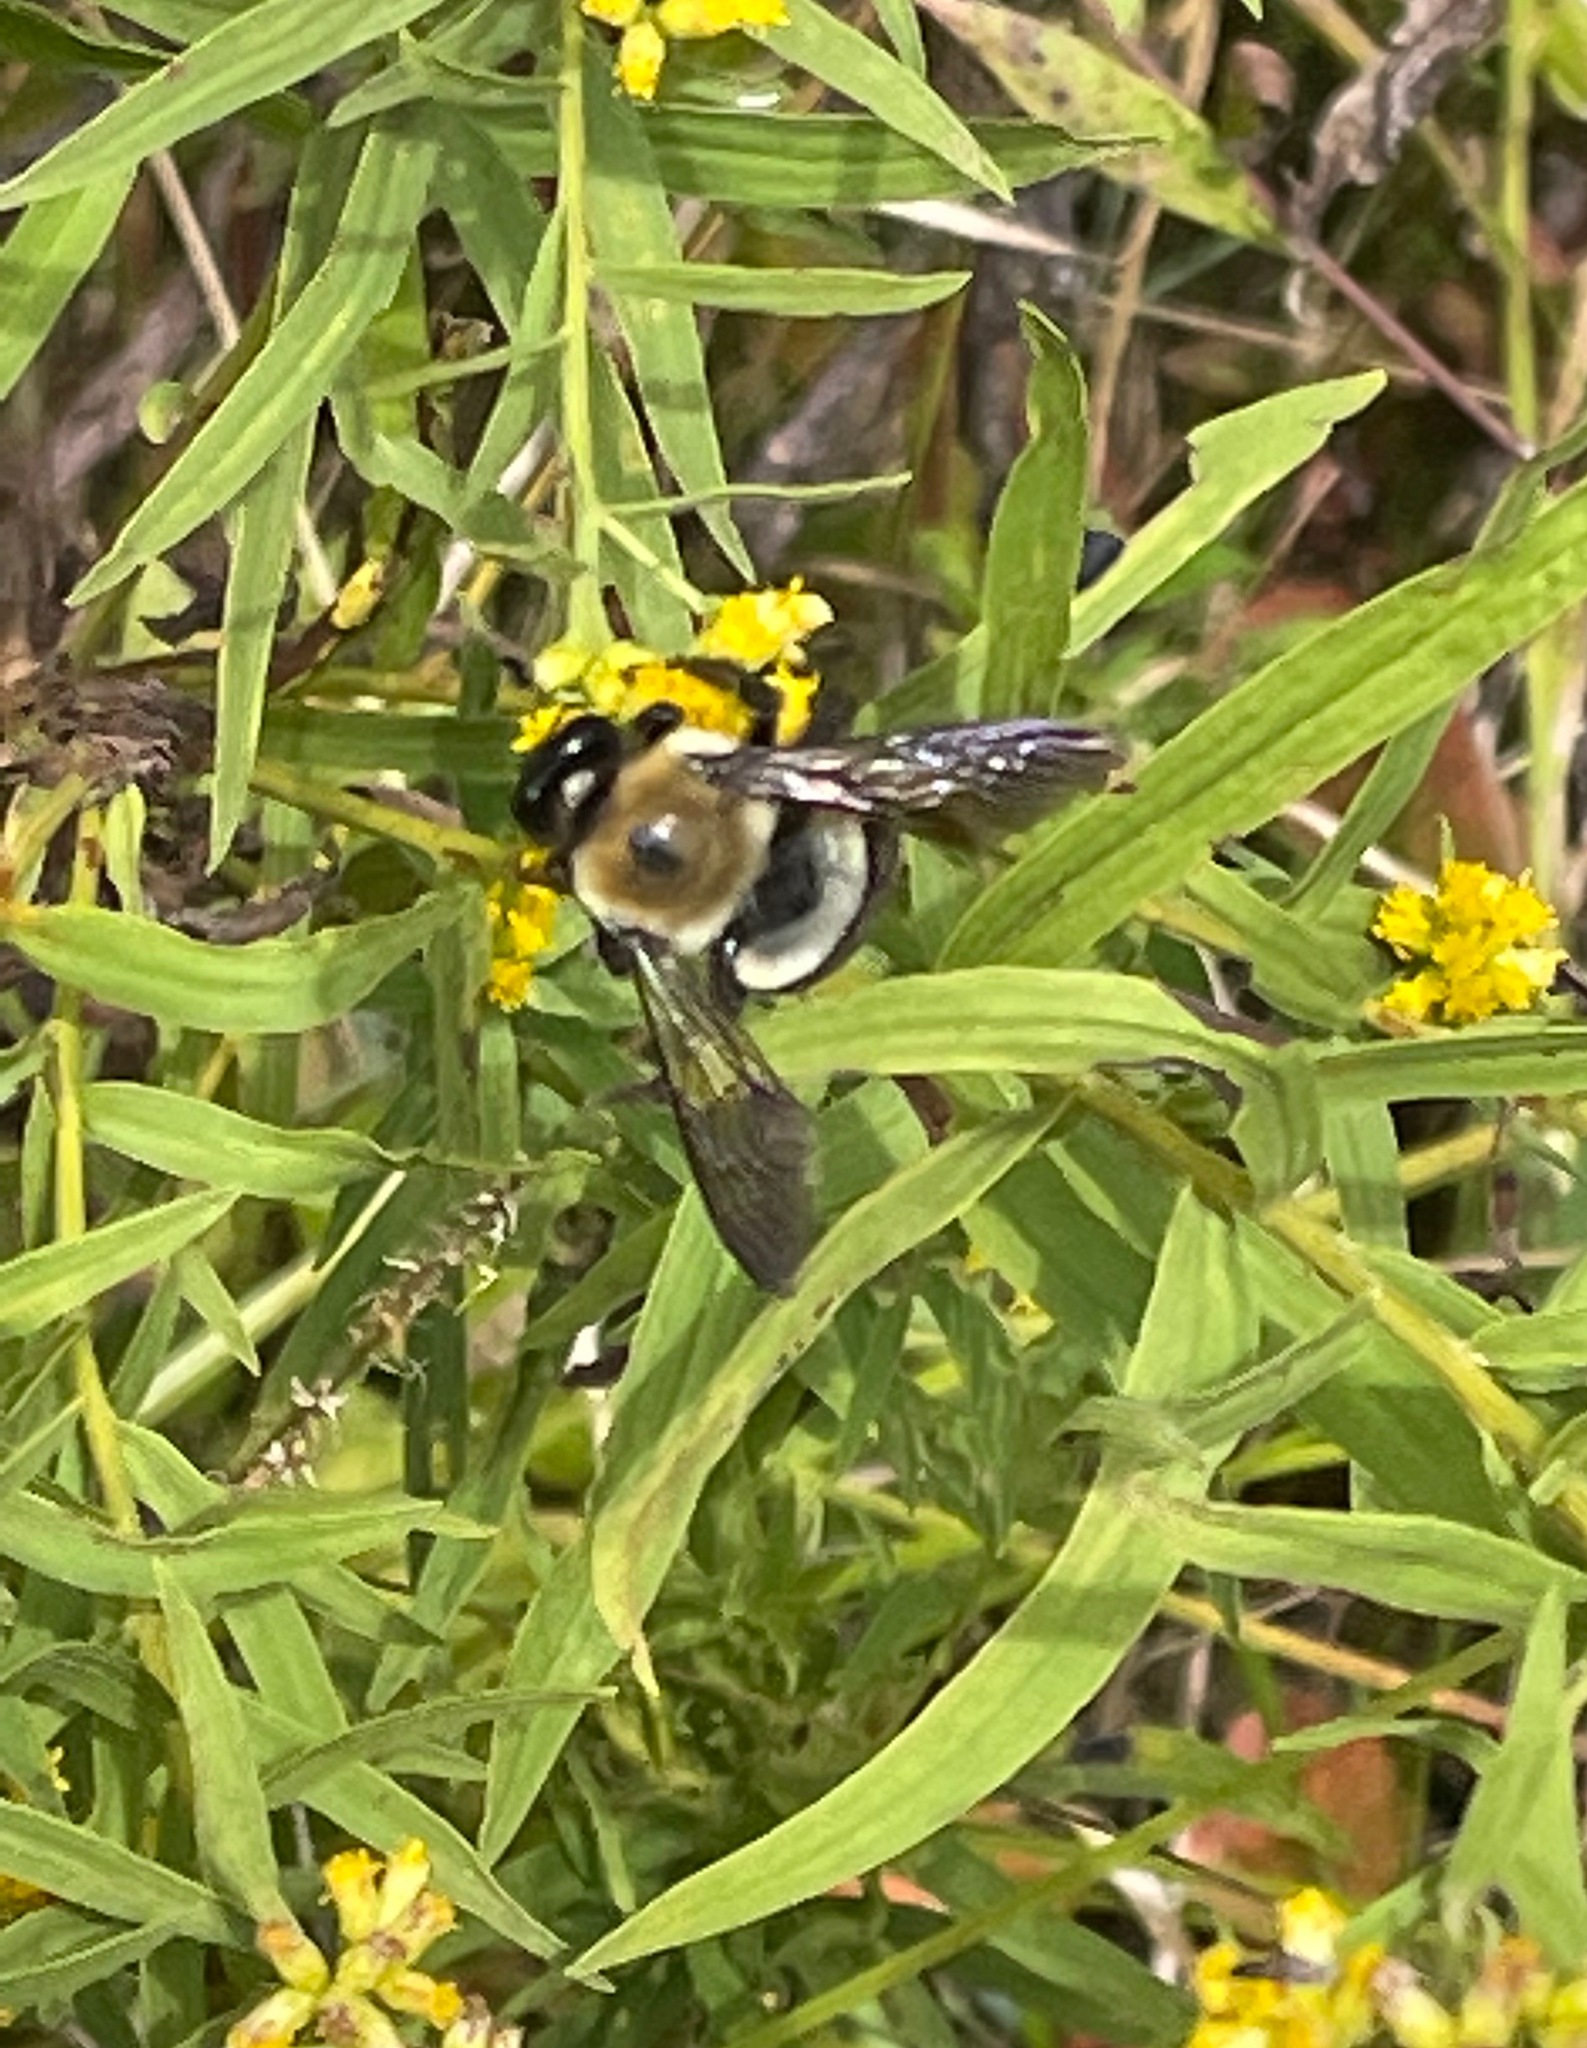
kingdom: Animalia
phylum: Arthropoda
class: Insecta
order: Hymenoptera
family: Apidae
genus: Xylocopa
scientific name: Xylocopa virginica
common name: Carpenter bee
